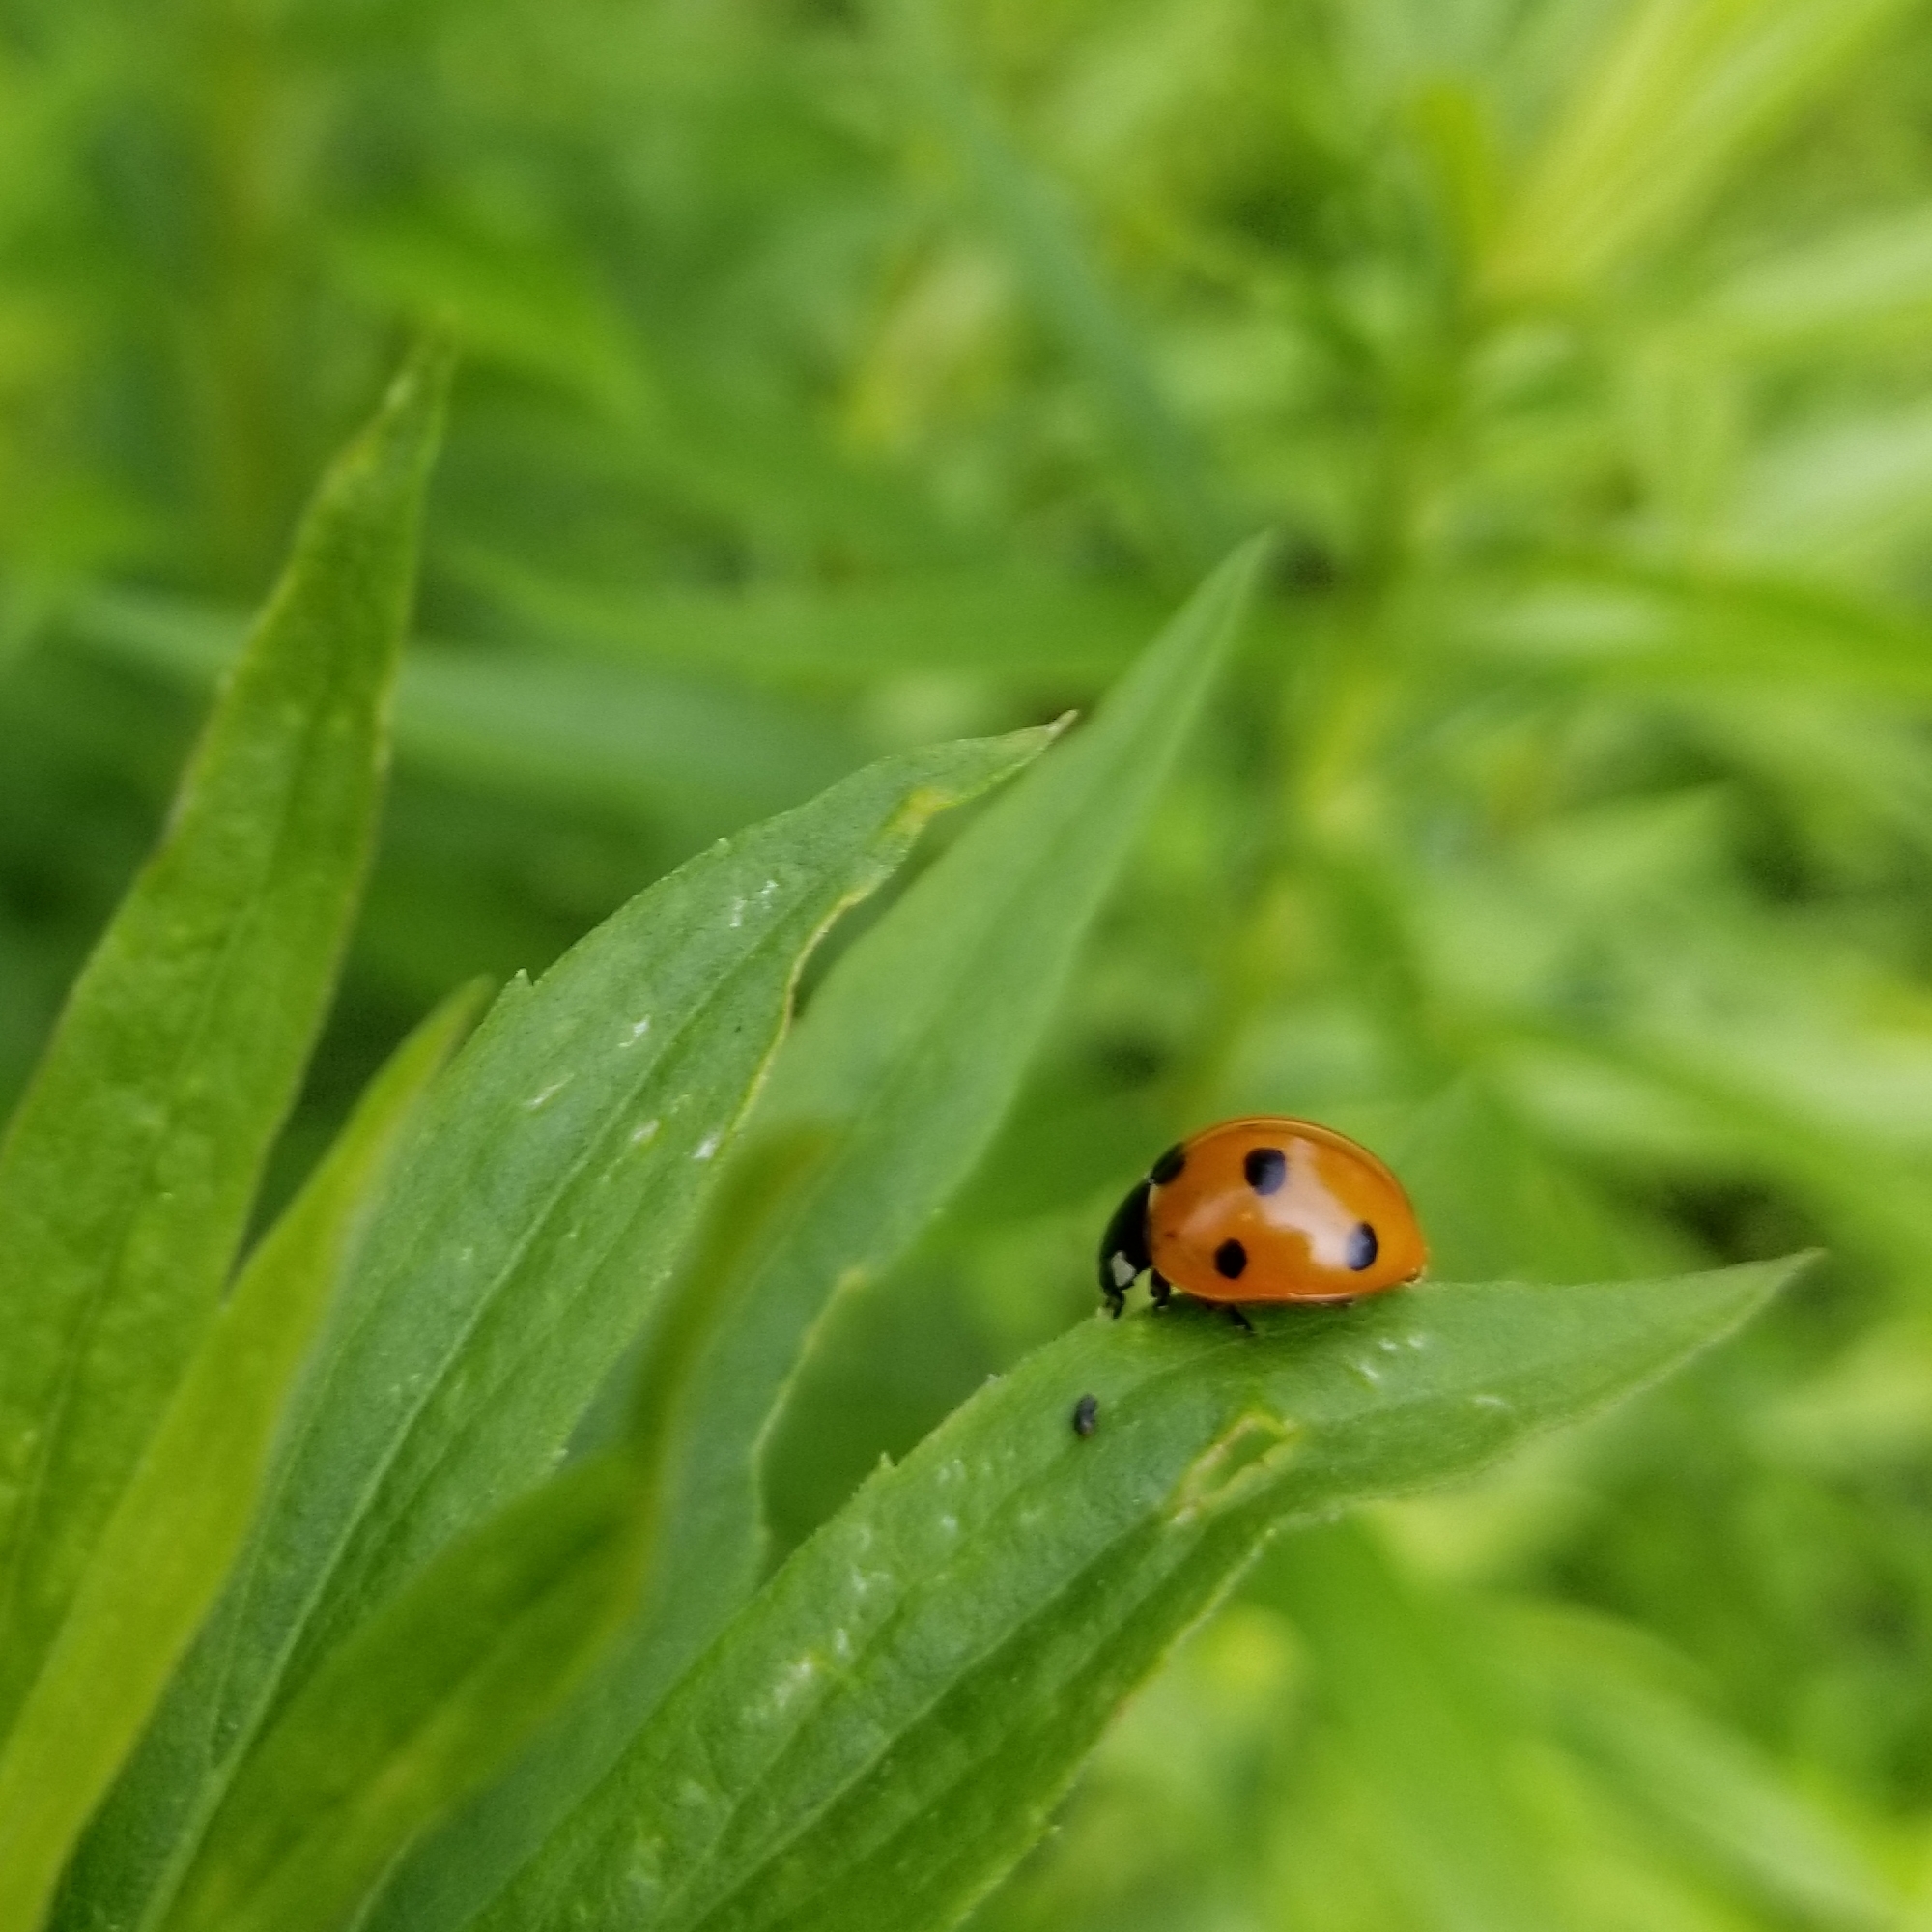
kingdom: Animalia
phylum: Arthropoda
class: Insecta
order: Coleoptera
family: Coccinellidae
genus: Coccinella
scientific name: Coccinella septempunctata
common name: Sevenspotted lady beetle
